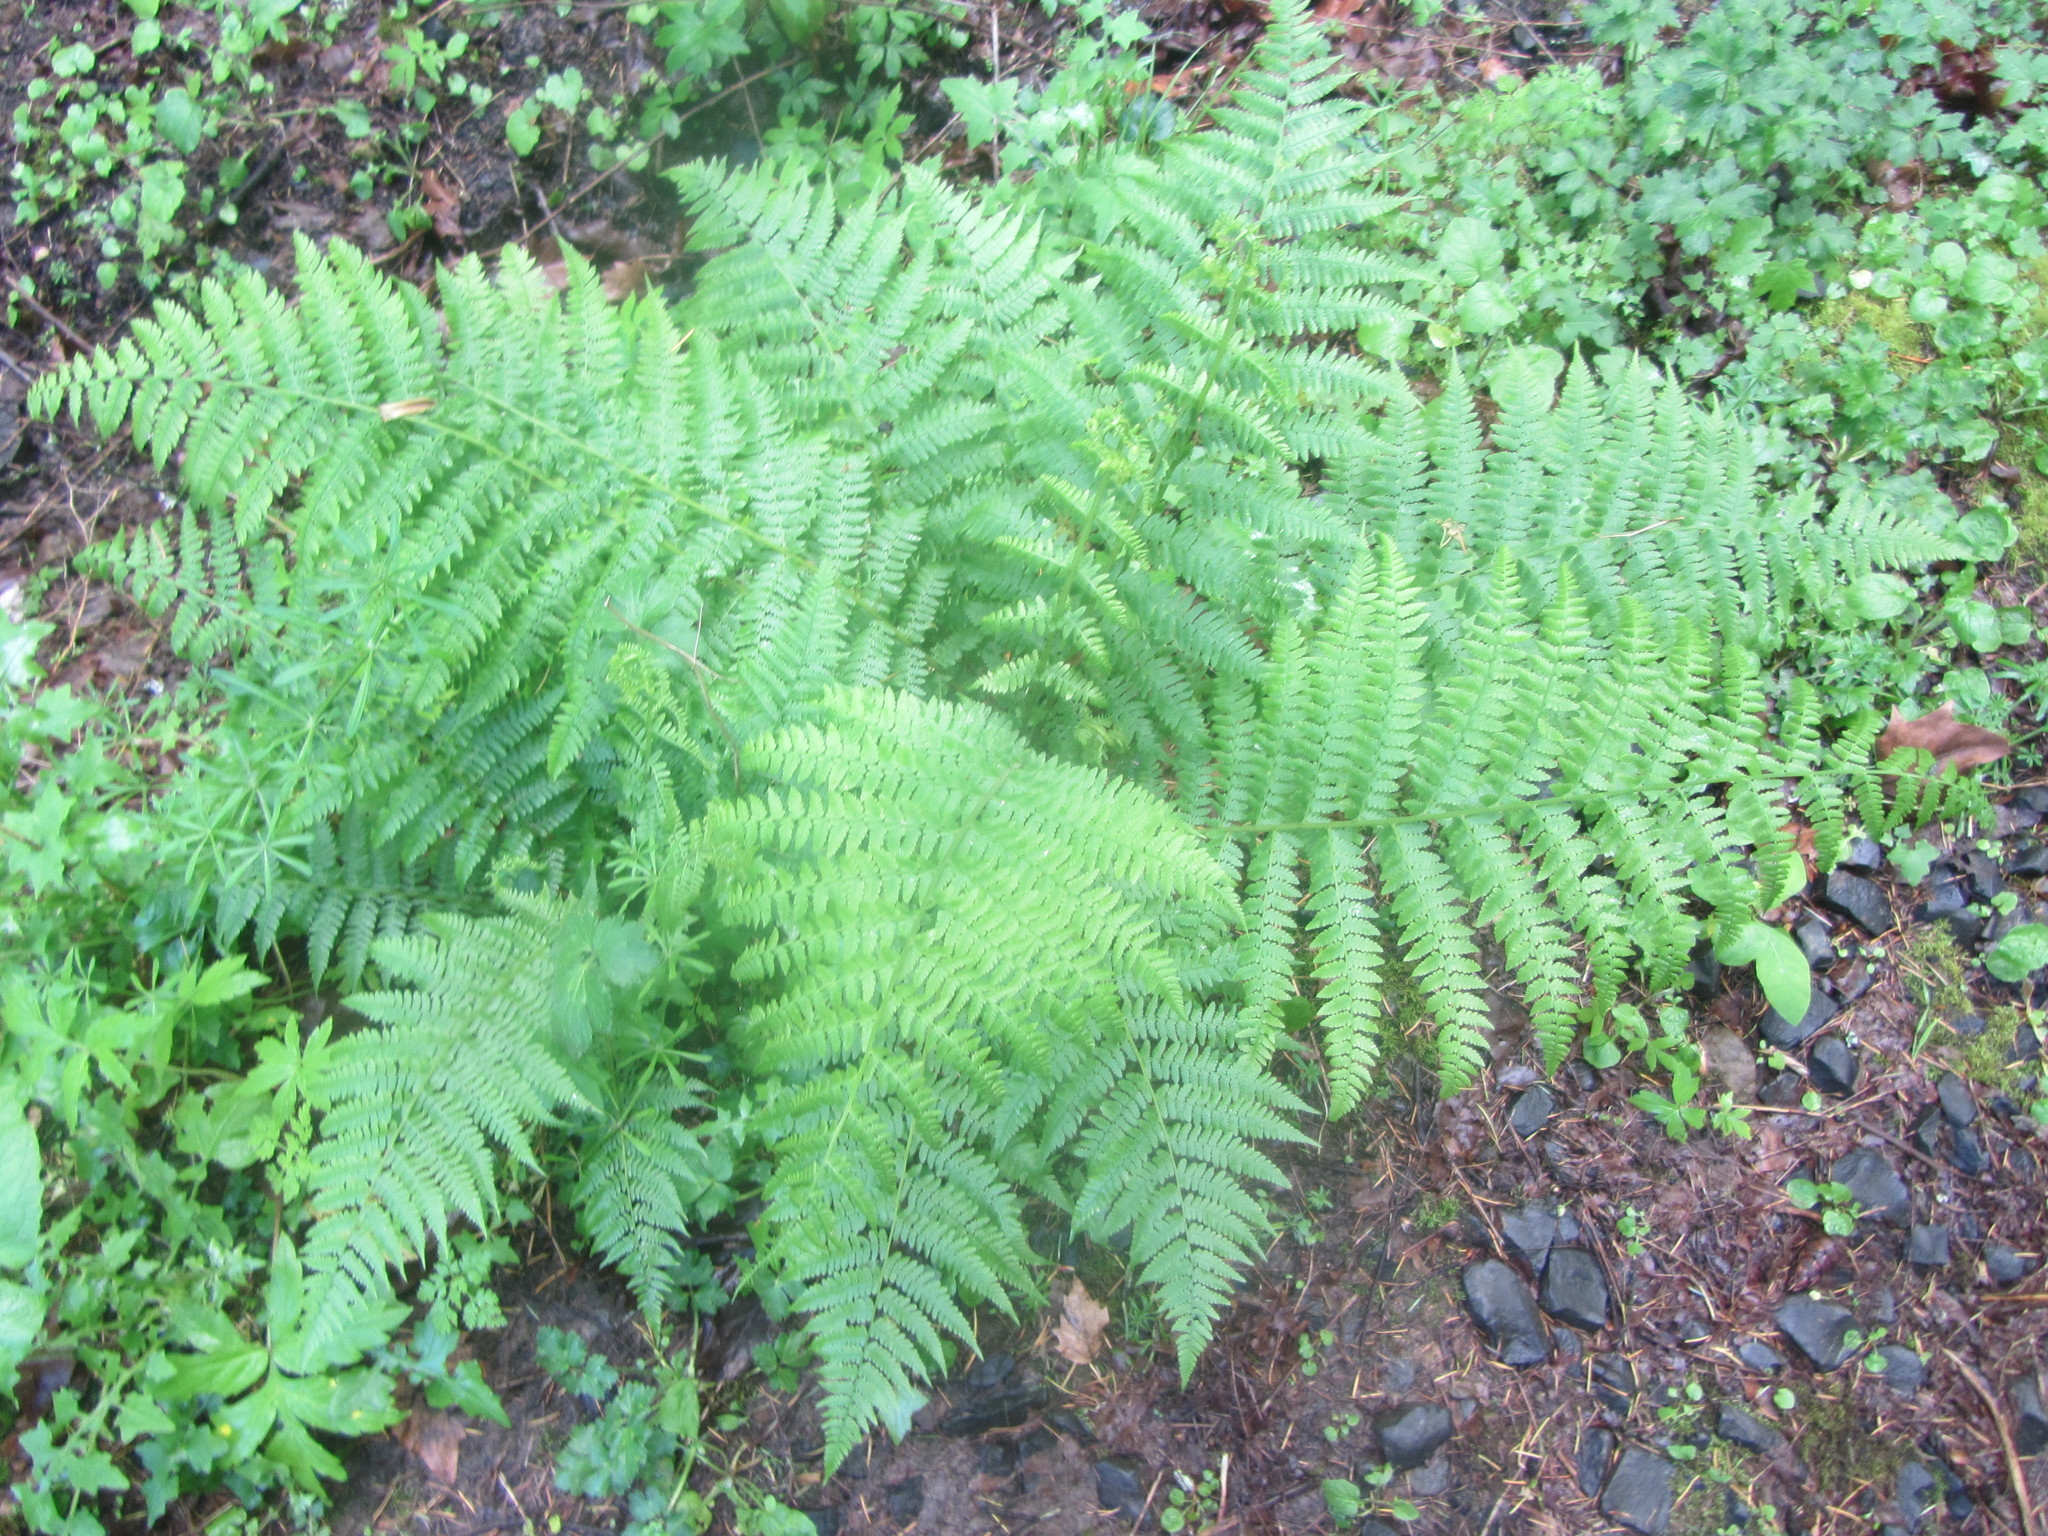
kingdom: Plantae
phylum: Tracheophyta
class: Polypodiopsida
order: Polypodiales
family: Athyriaceae
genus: Athyrium
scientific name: Athyrium filix-femina
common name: Lady fern
